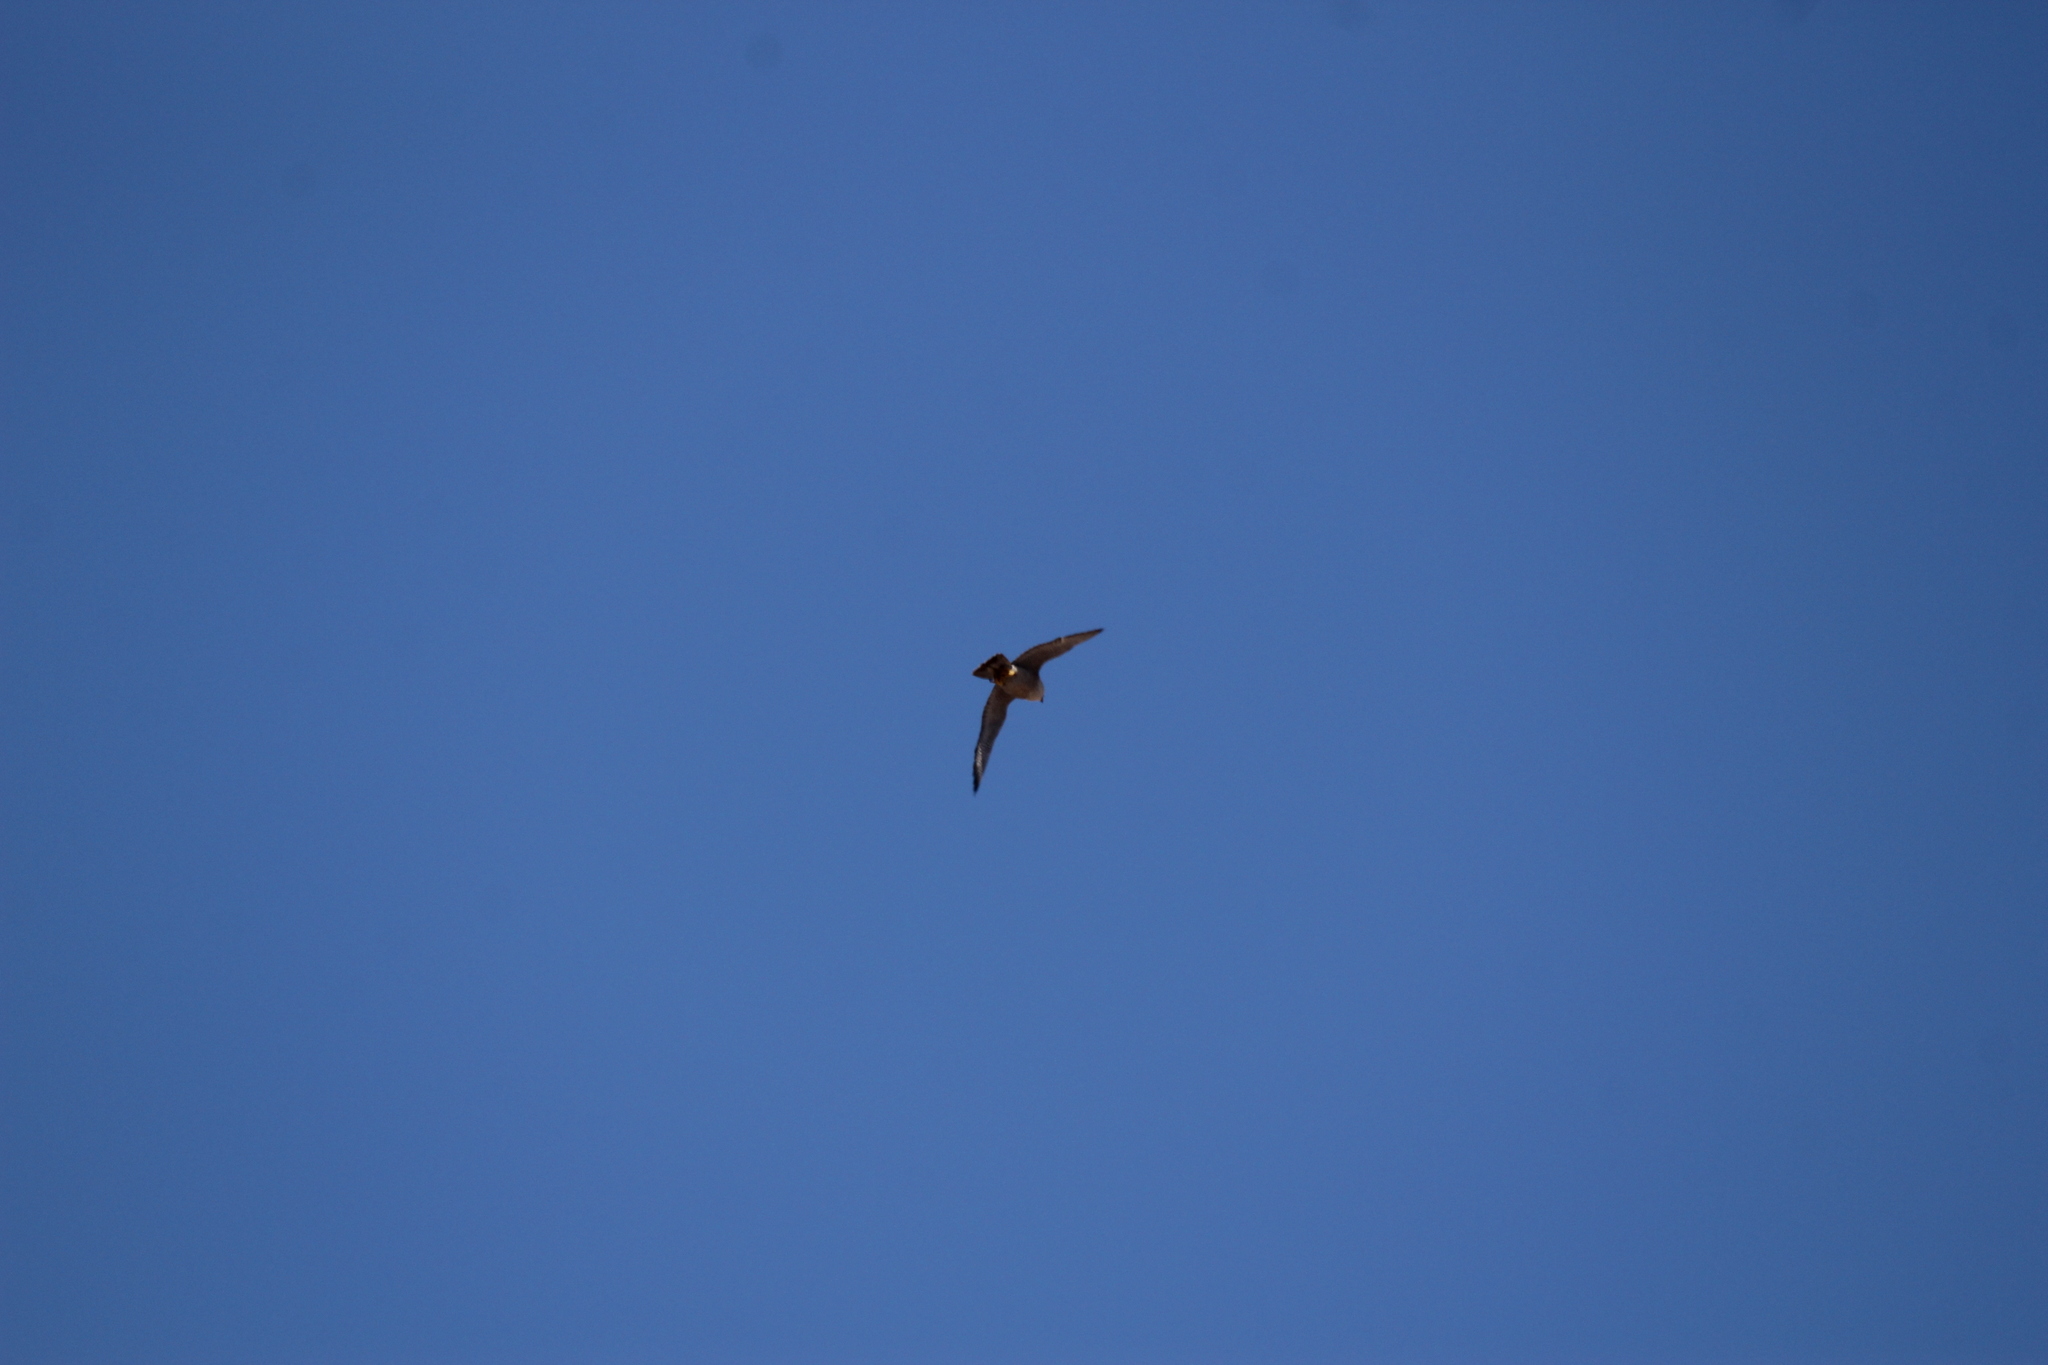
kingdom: Animalia
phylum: Chordata
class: Aves
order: Falconiformes
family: Falconidae
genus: Falco
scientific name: Falco peregrinus
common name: Peregrine falcon
